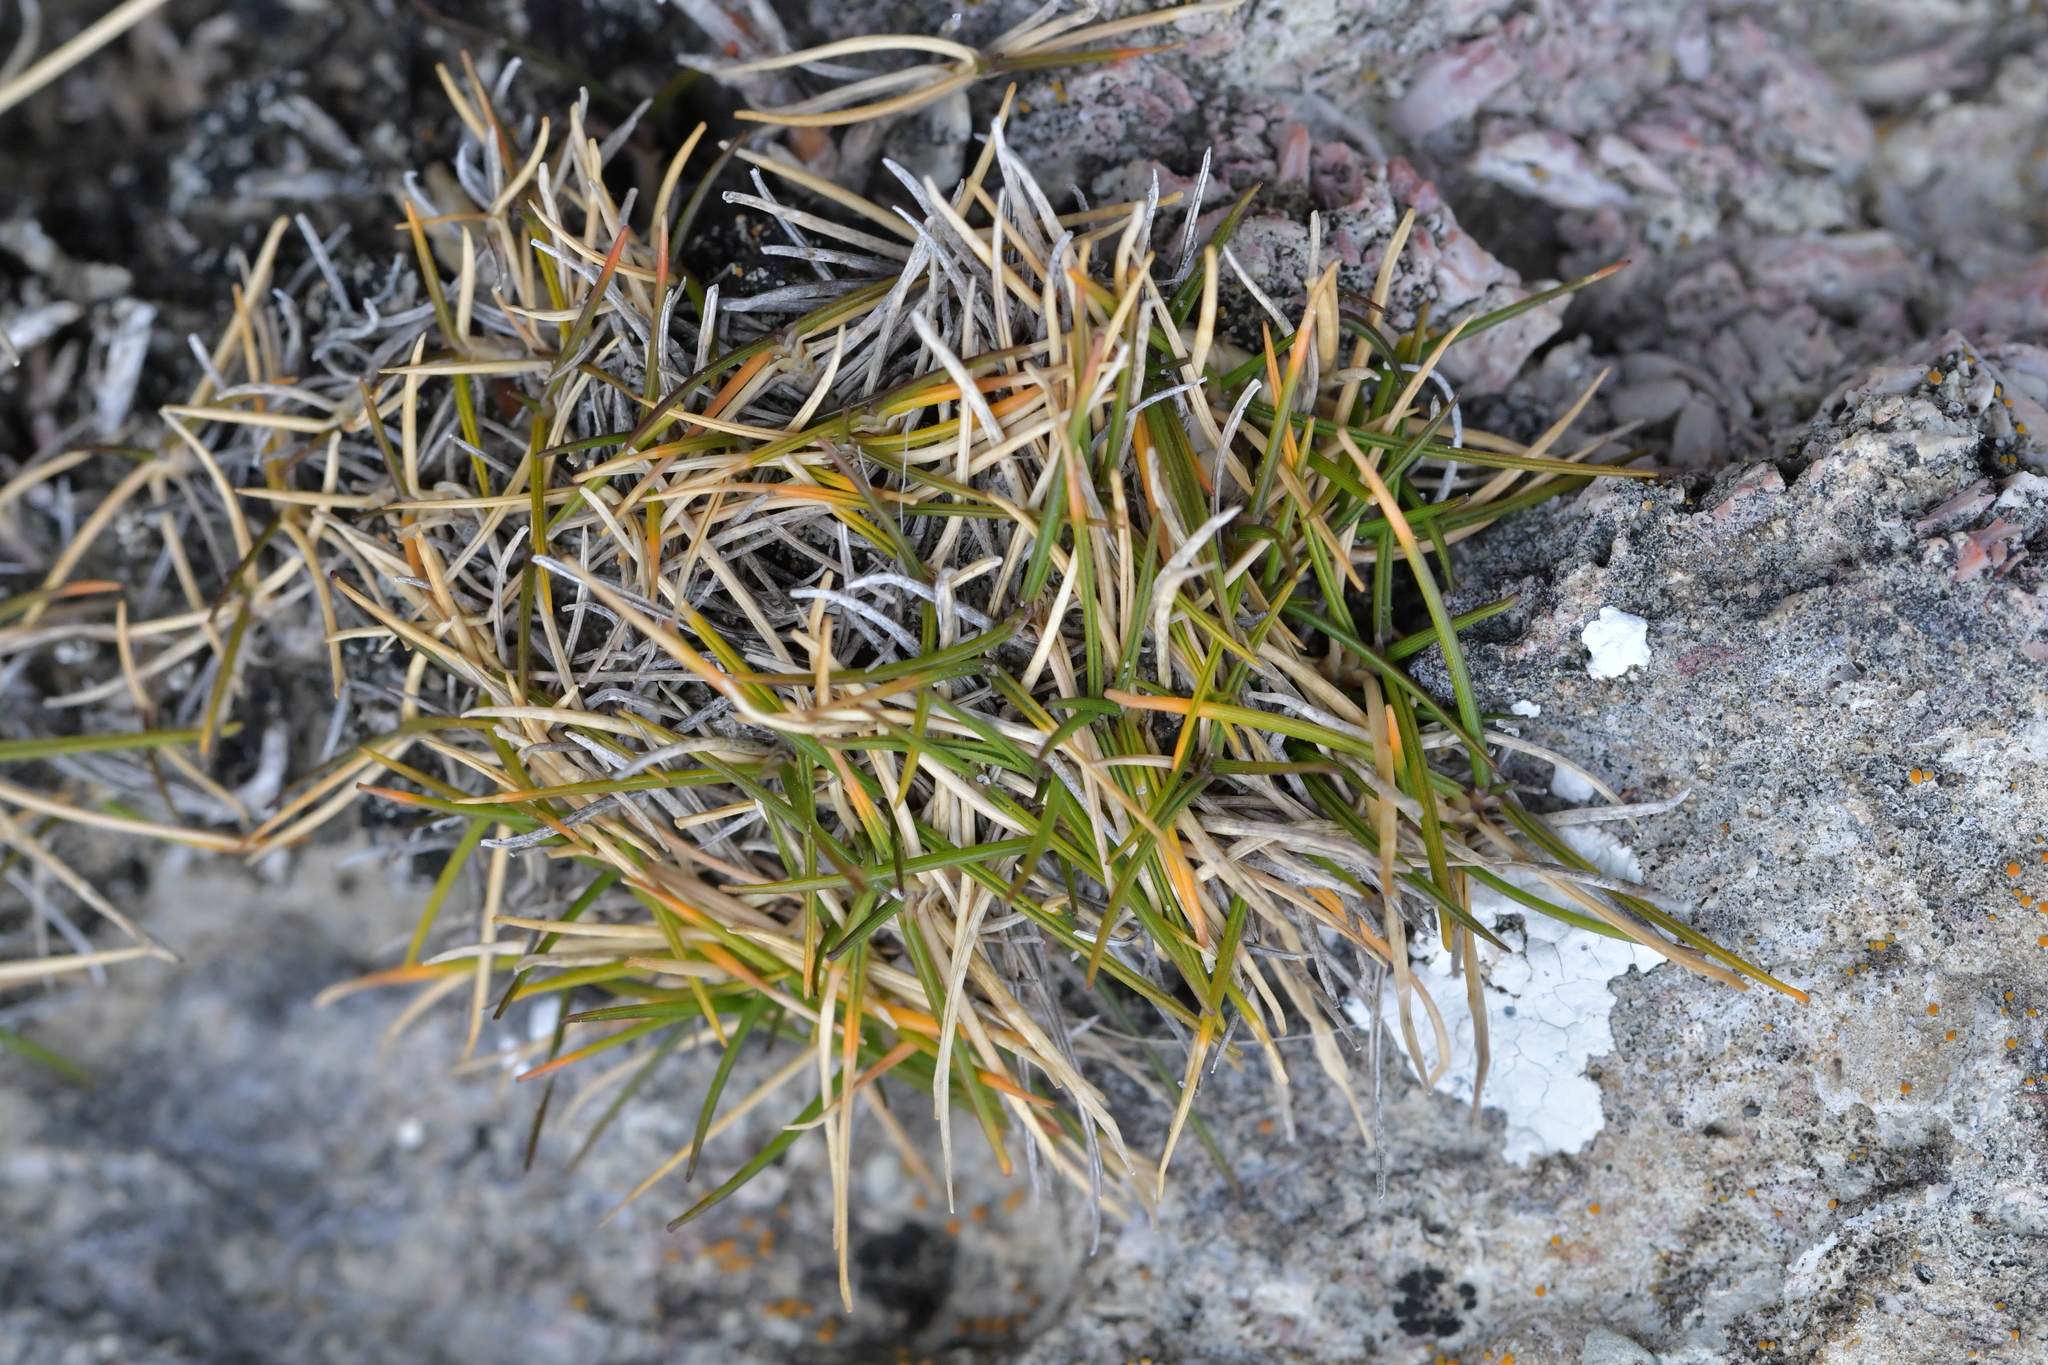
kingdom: Plantae
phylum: Tracheophyta
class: Liliopsida
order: Poales
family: Poaceae
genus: Zoysia
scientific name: Zoysia minima
